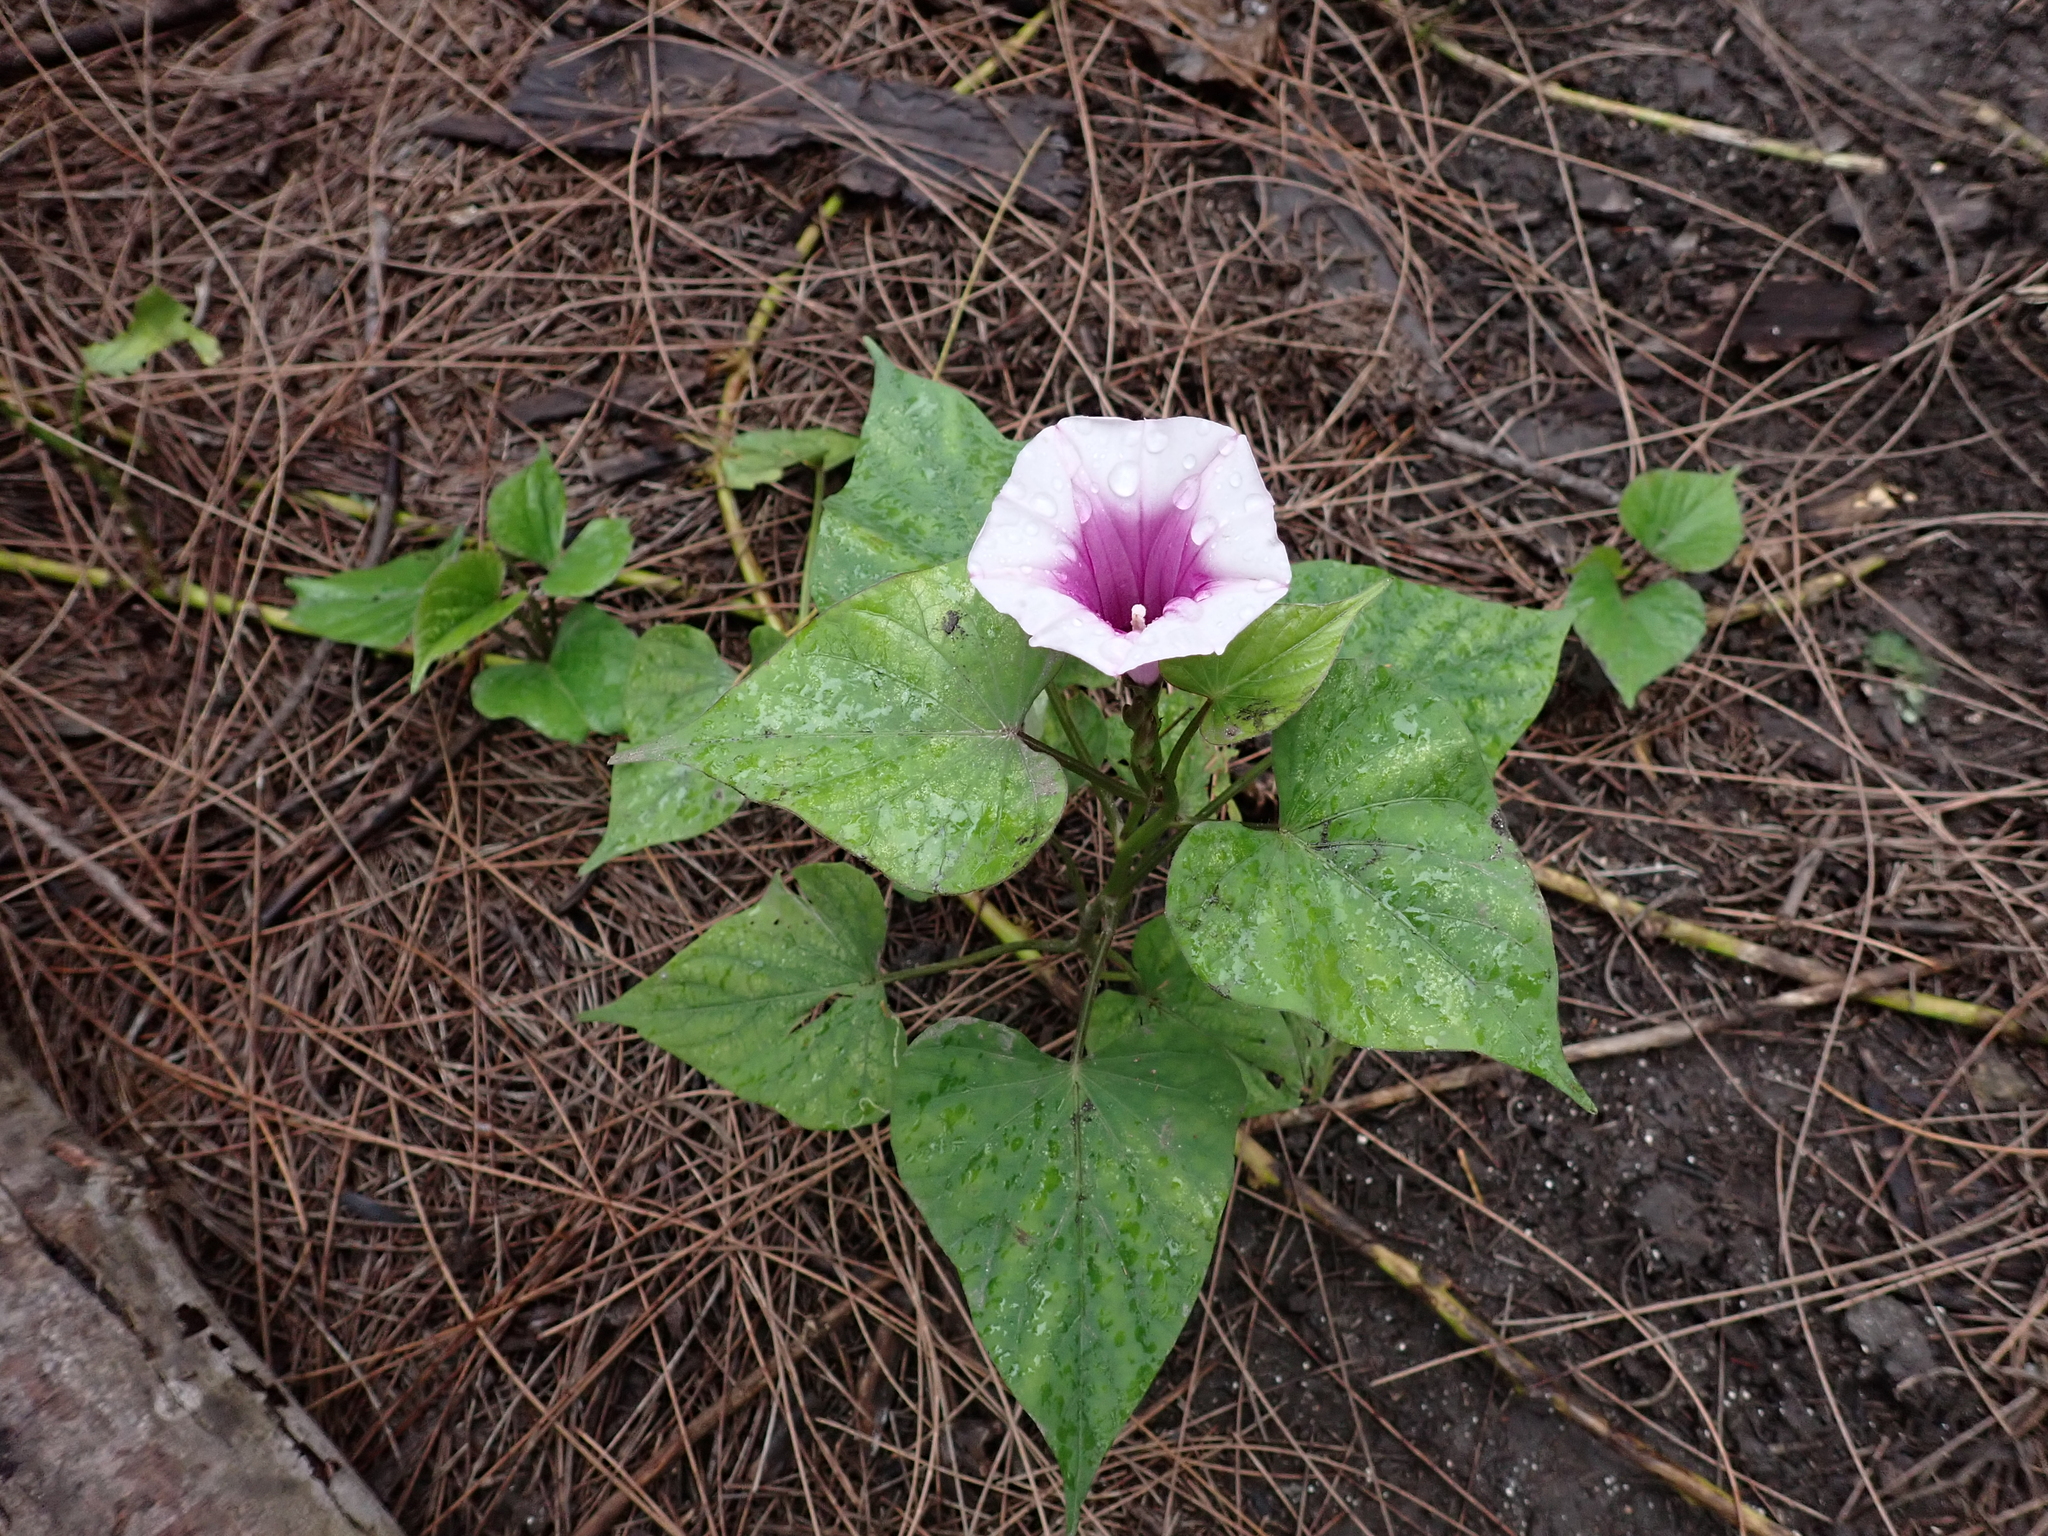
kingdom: Plantae
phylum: Tracheophyta
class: Magnoliopsida
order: Solanales
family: Convolvulaceae
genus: Ipomoea
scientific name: Ipomoea batatas
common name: Sweet-potato
